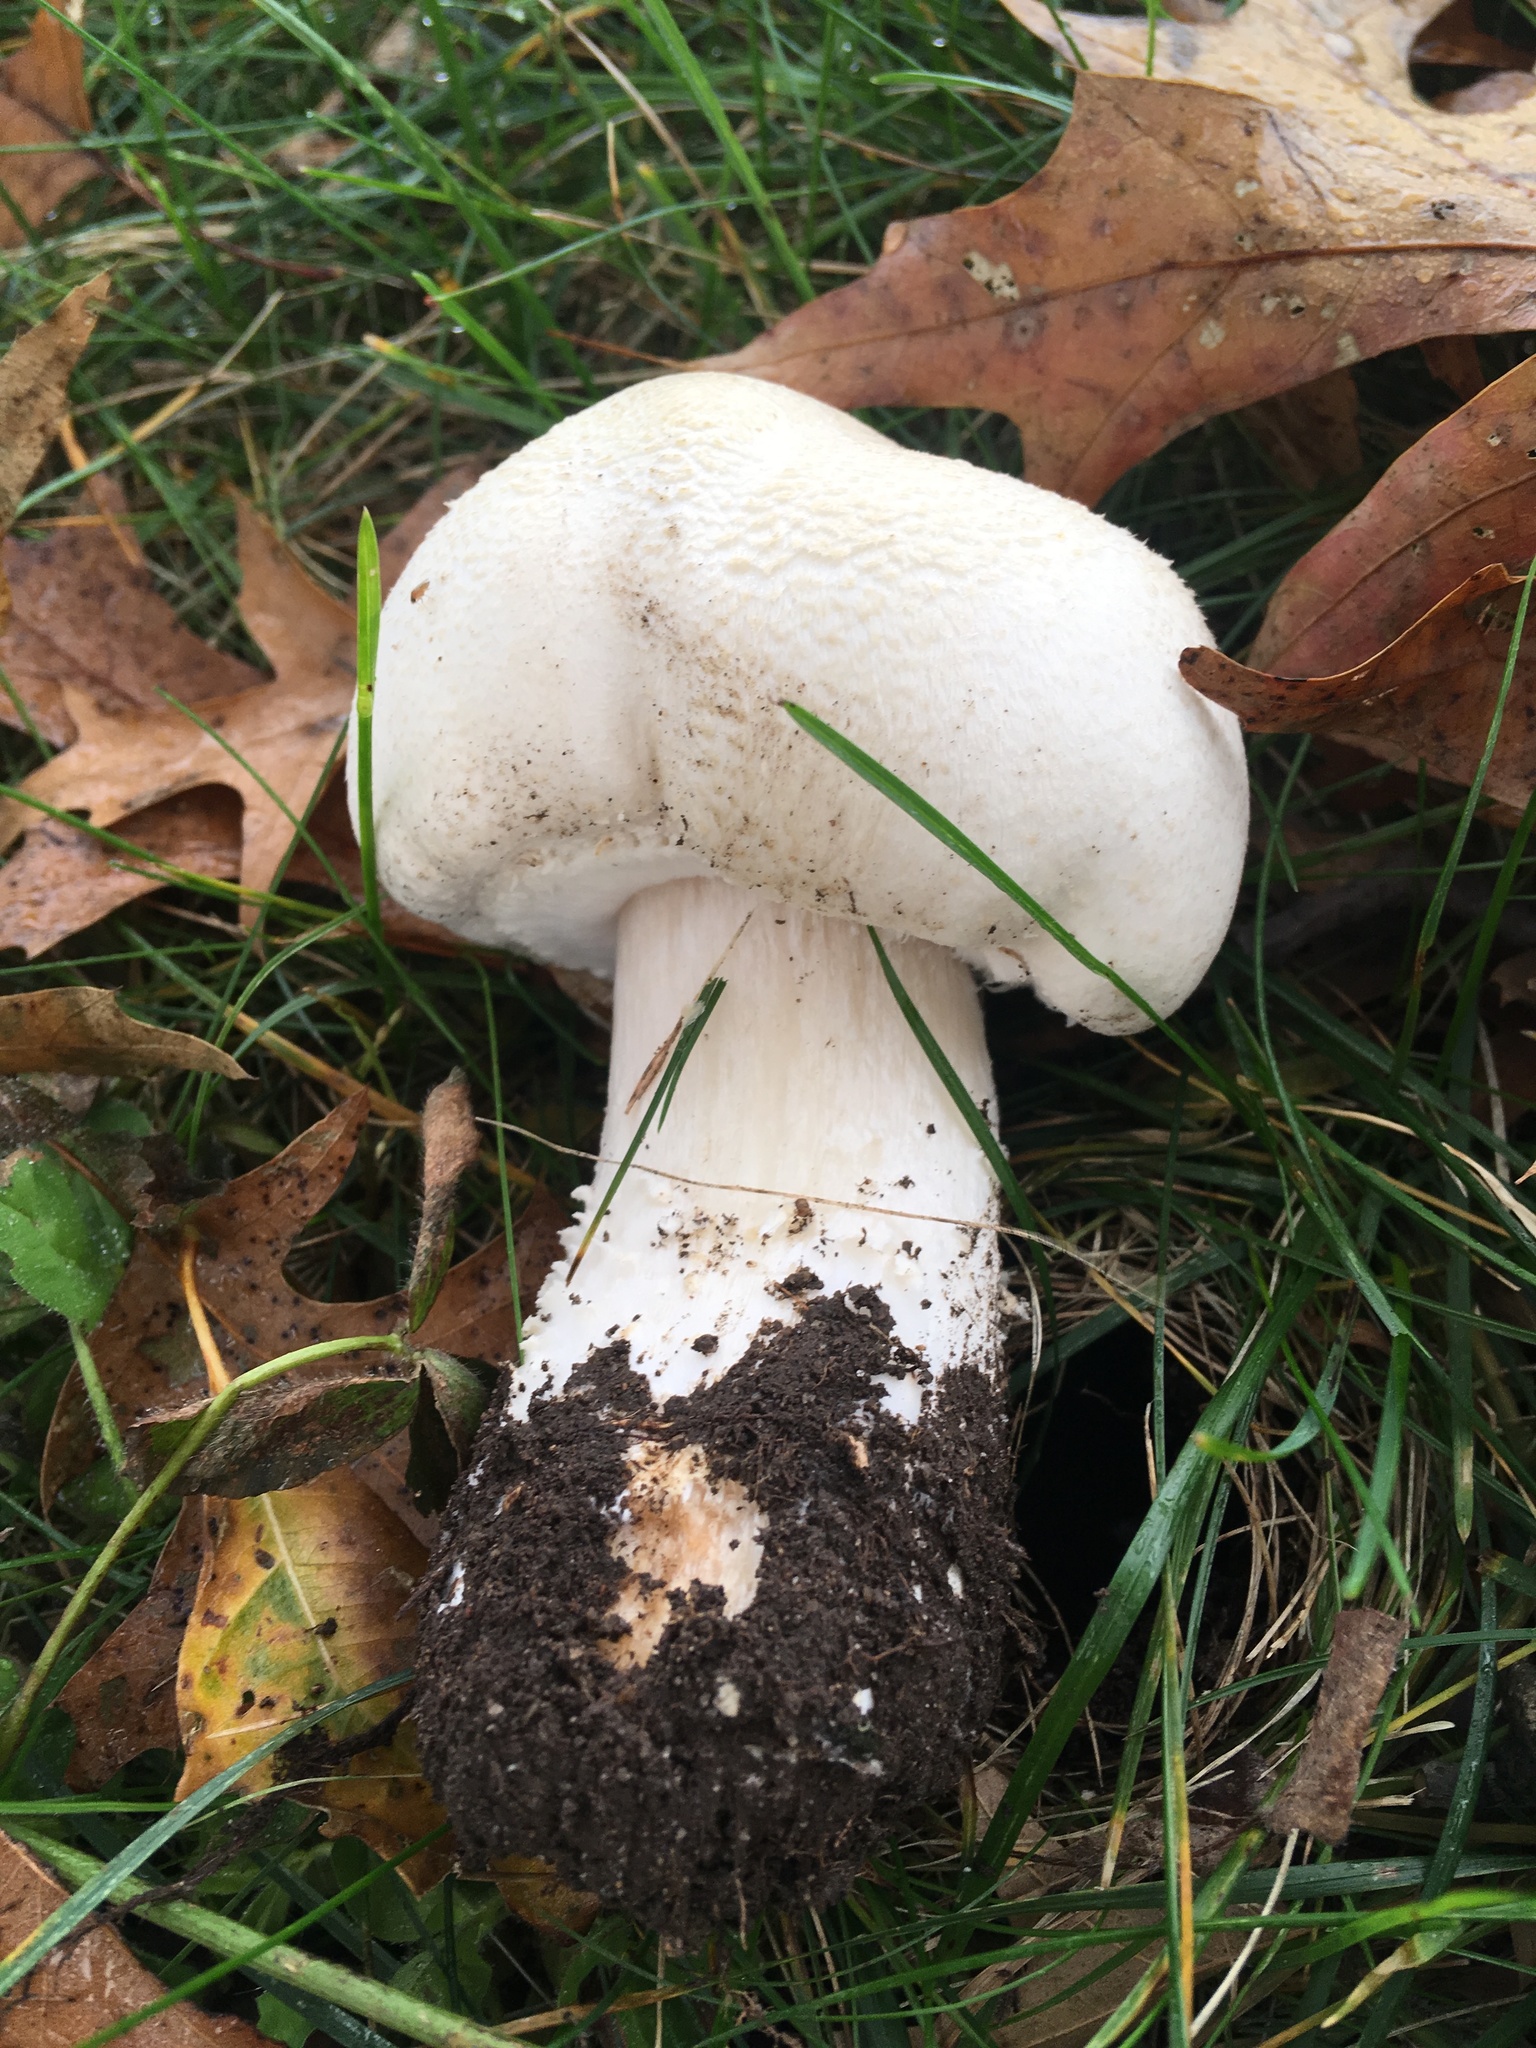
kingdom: Fungi
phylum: Basidiomycota
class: Agaricomycetes
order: Agaricales
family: Agaricaceae
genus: Agaricus
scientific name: Agaricus arvensis
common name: Horse mushroom
